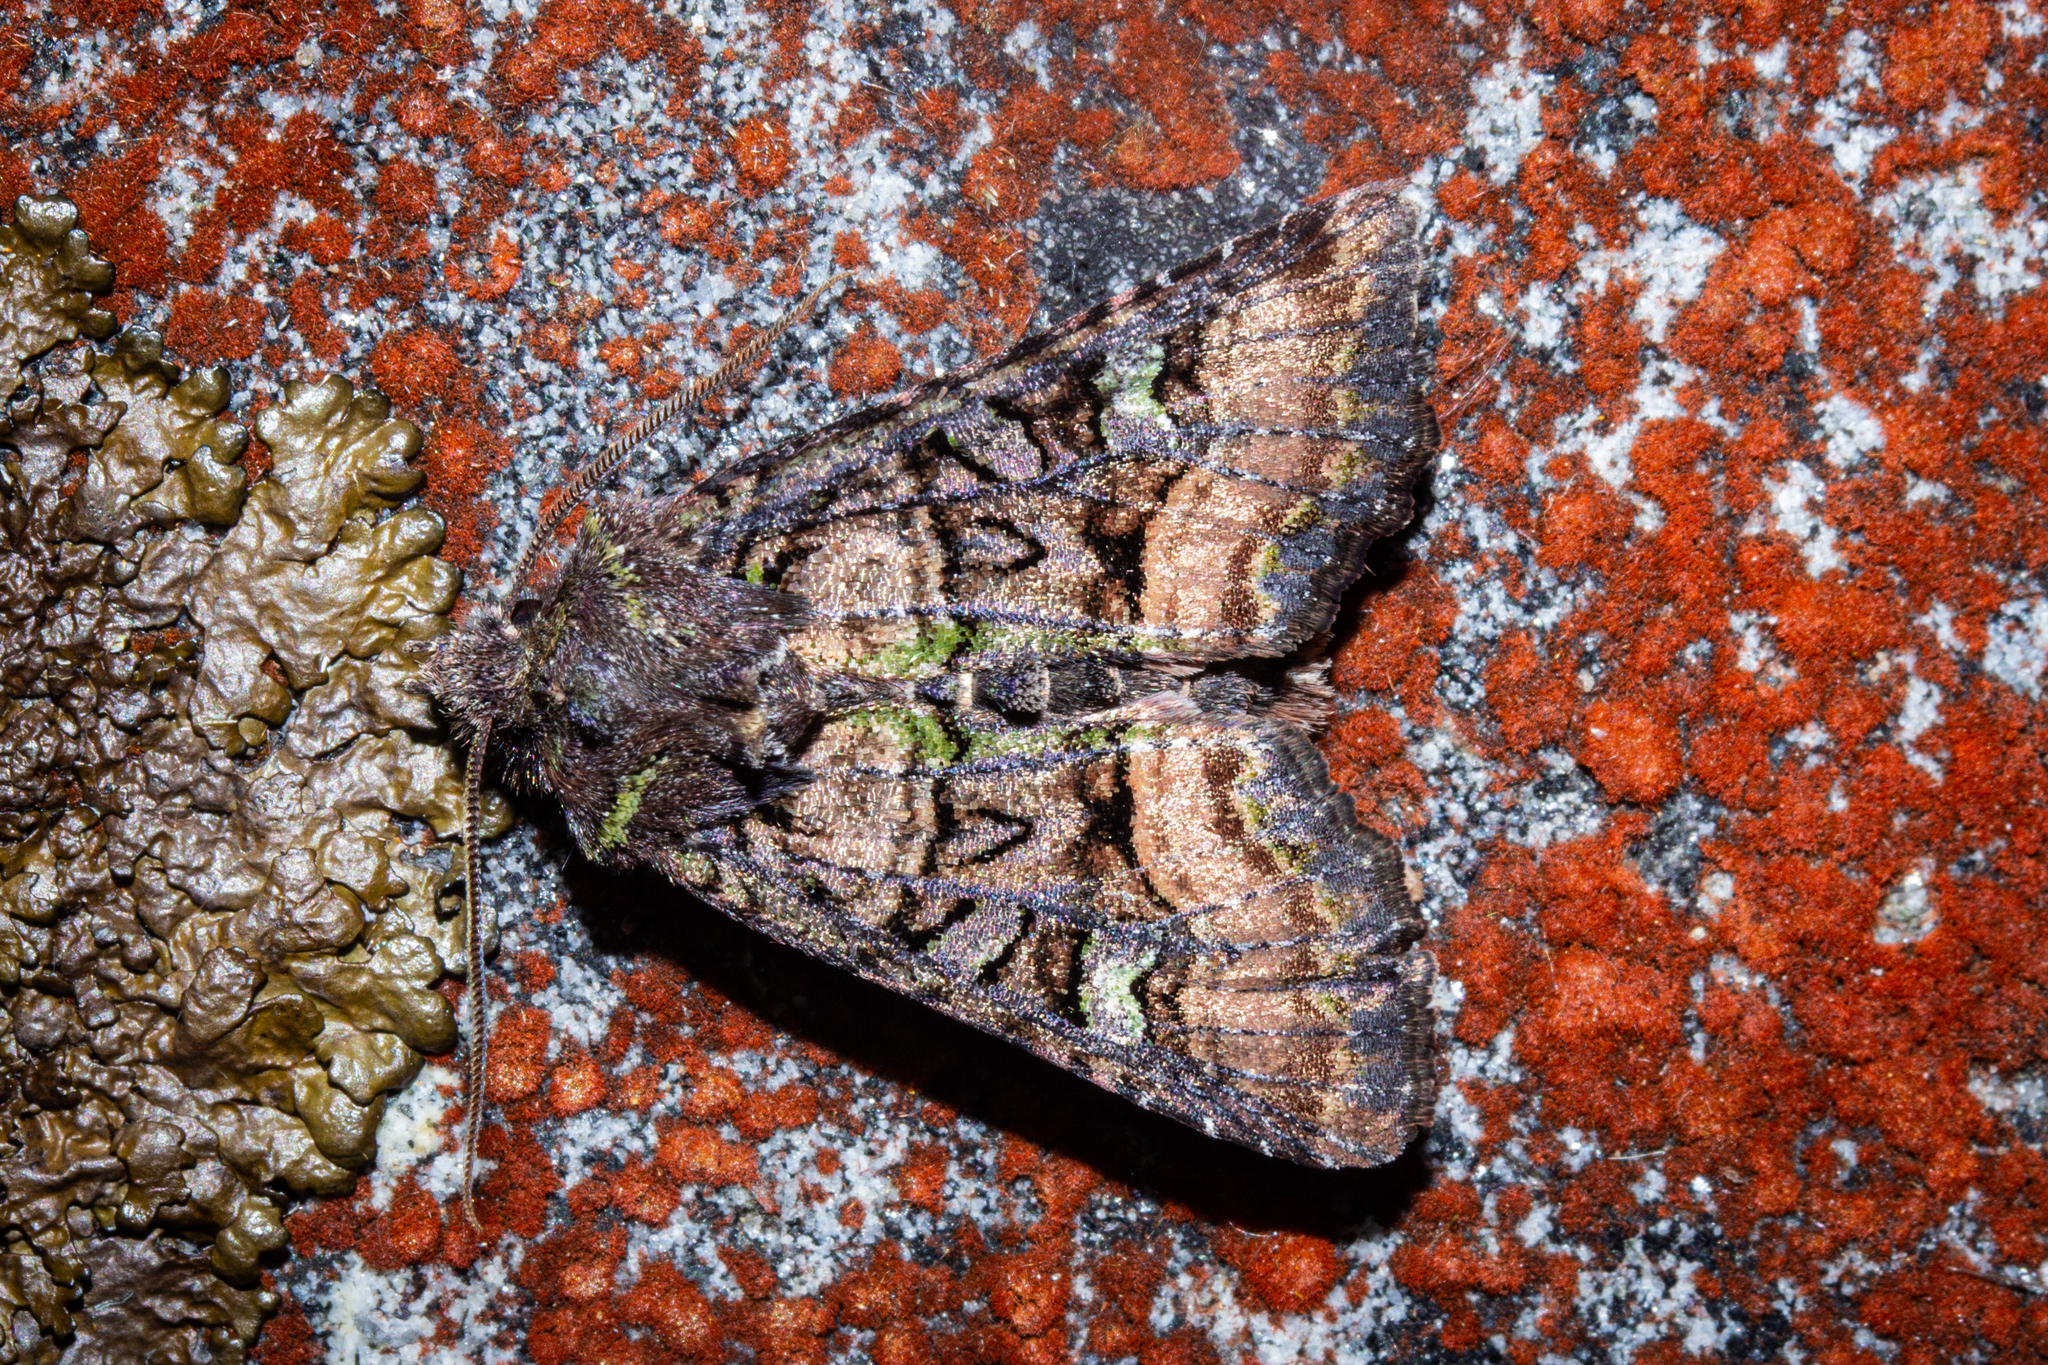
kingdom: Animalia
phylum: Arthropoda
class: Insecta
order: Lepidoptera
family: Noctuidae
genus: Meterana
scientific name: Meterana asterope
